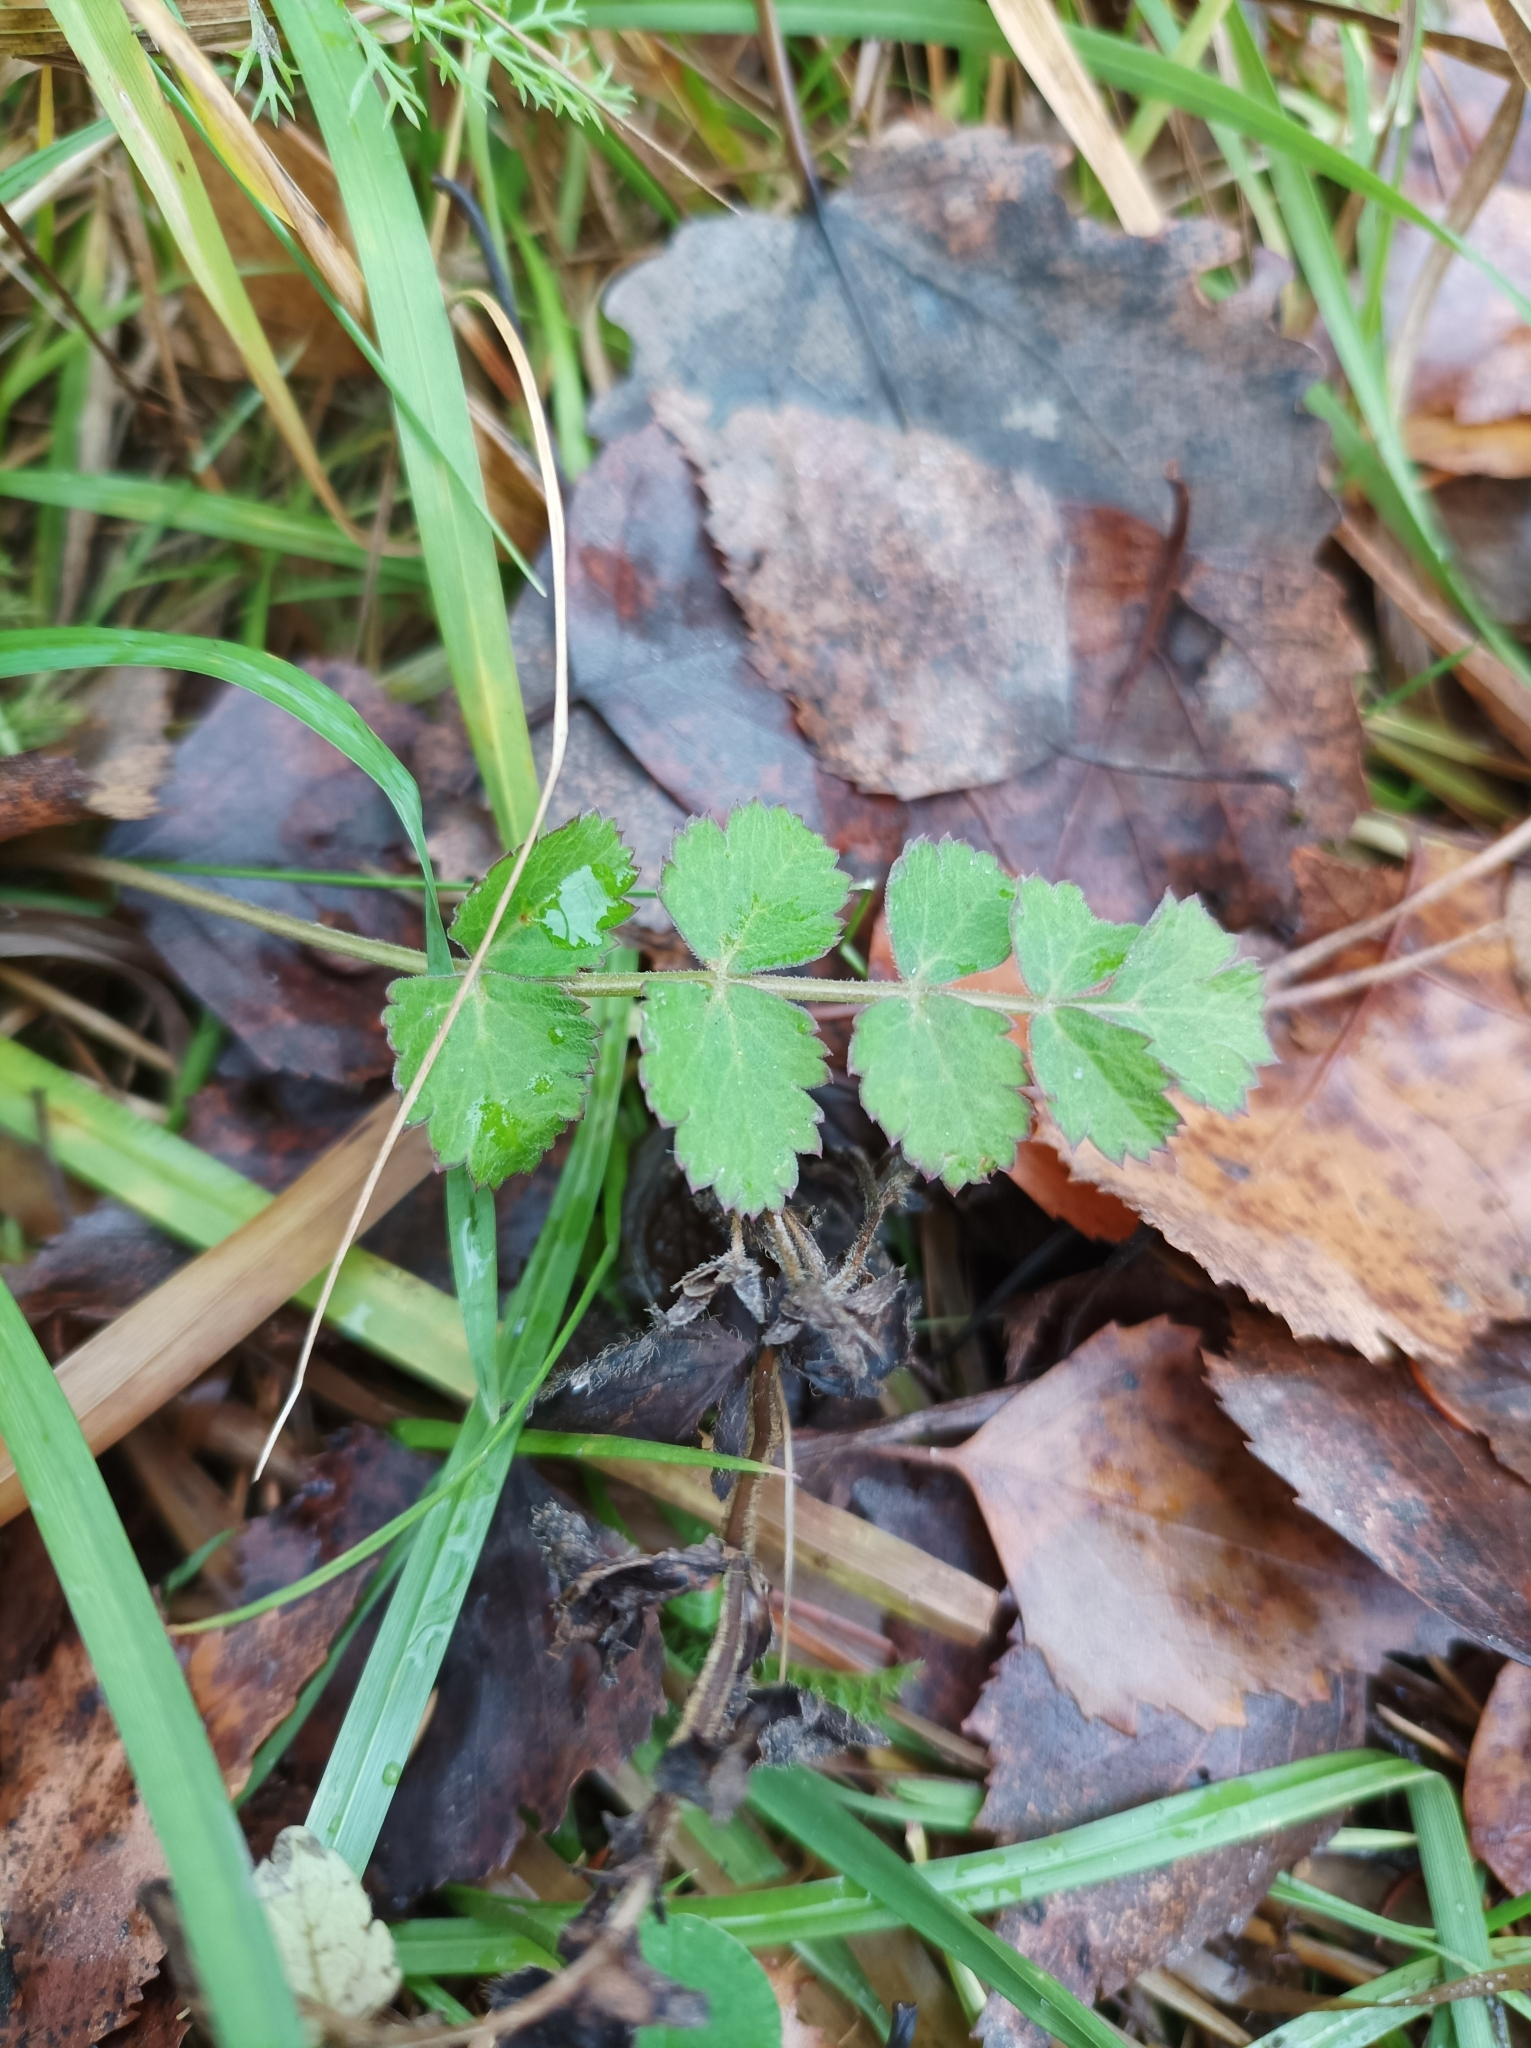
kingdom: Plantae
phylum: Tracheophyta
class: Magnoliopsida
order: Apiales
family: Apiaceae
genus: Pimpinella
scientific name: Pimpinella saxifraga
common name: Burnet-saxifrage
